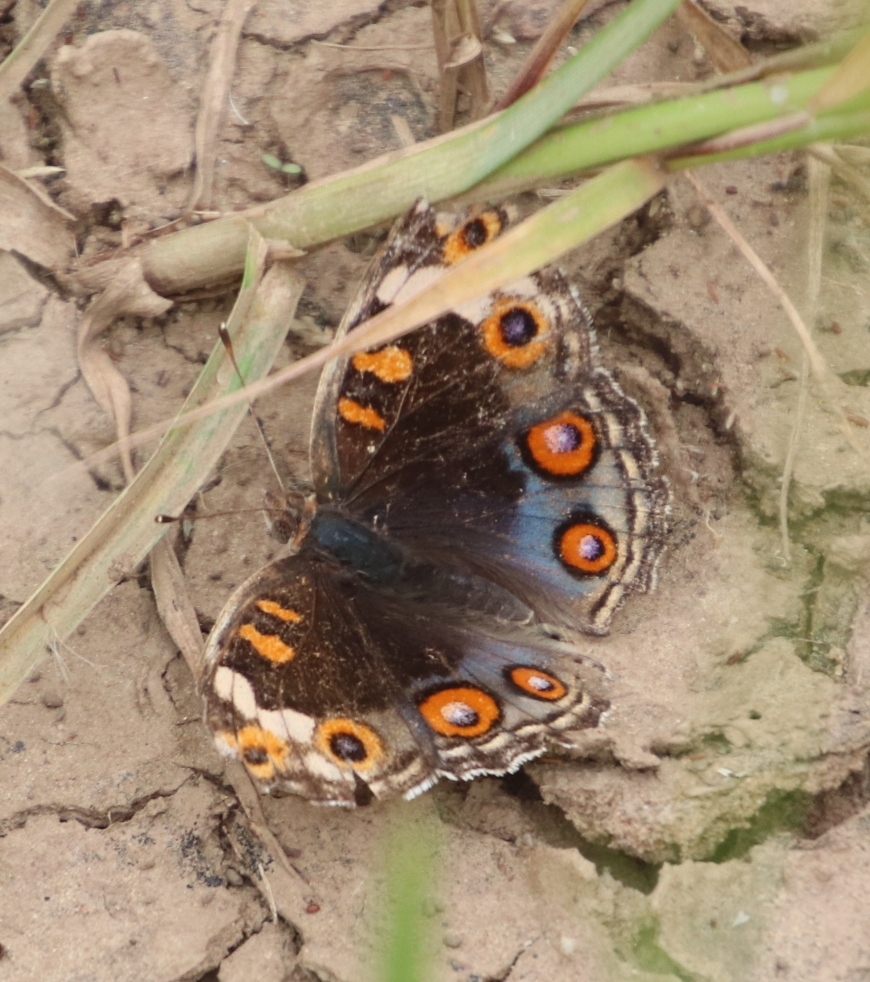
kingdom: Animalia
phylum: Arthropoda
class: Insecta
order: Lepidoptera
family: Nymphalidae
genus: Junonia
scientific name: Junonia orithya
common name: Blue pansy
